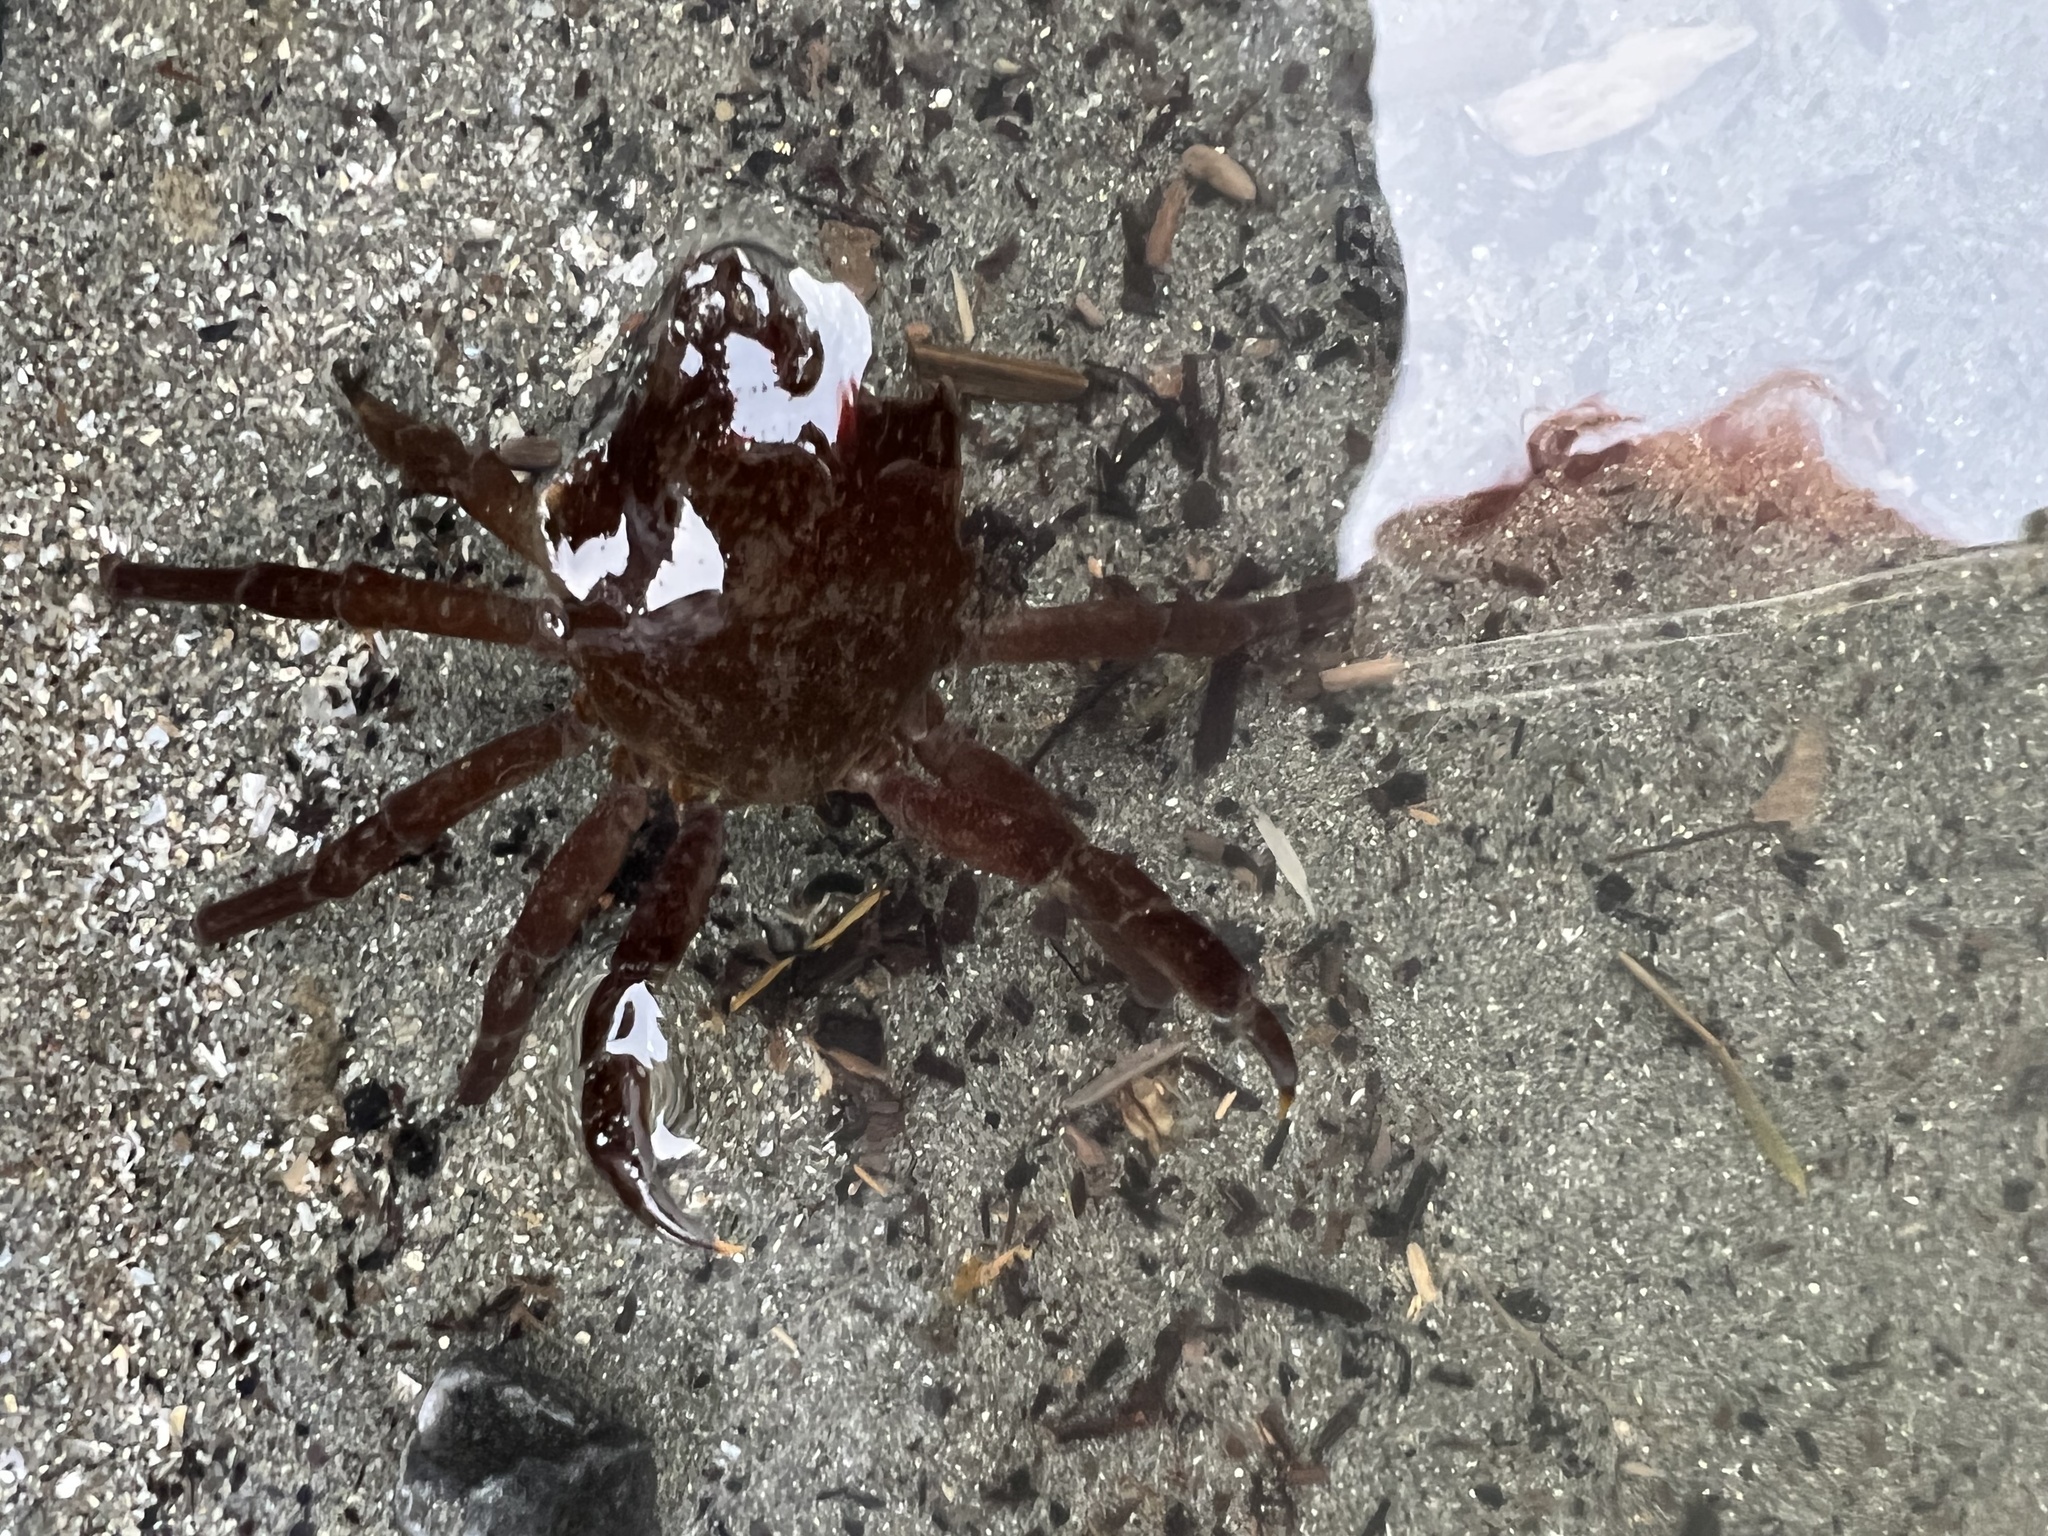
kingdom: Animalia
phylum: Arthropoda
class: Malacostraca
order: Decapoda
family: Epialtidae
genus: Pugettia
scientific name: Pugettia producta
